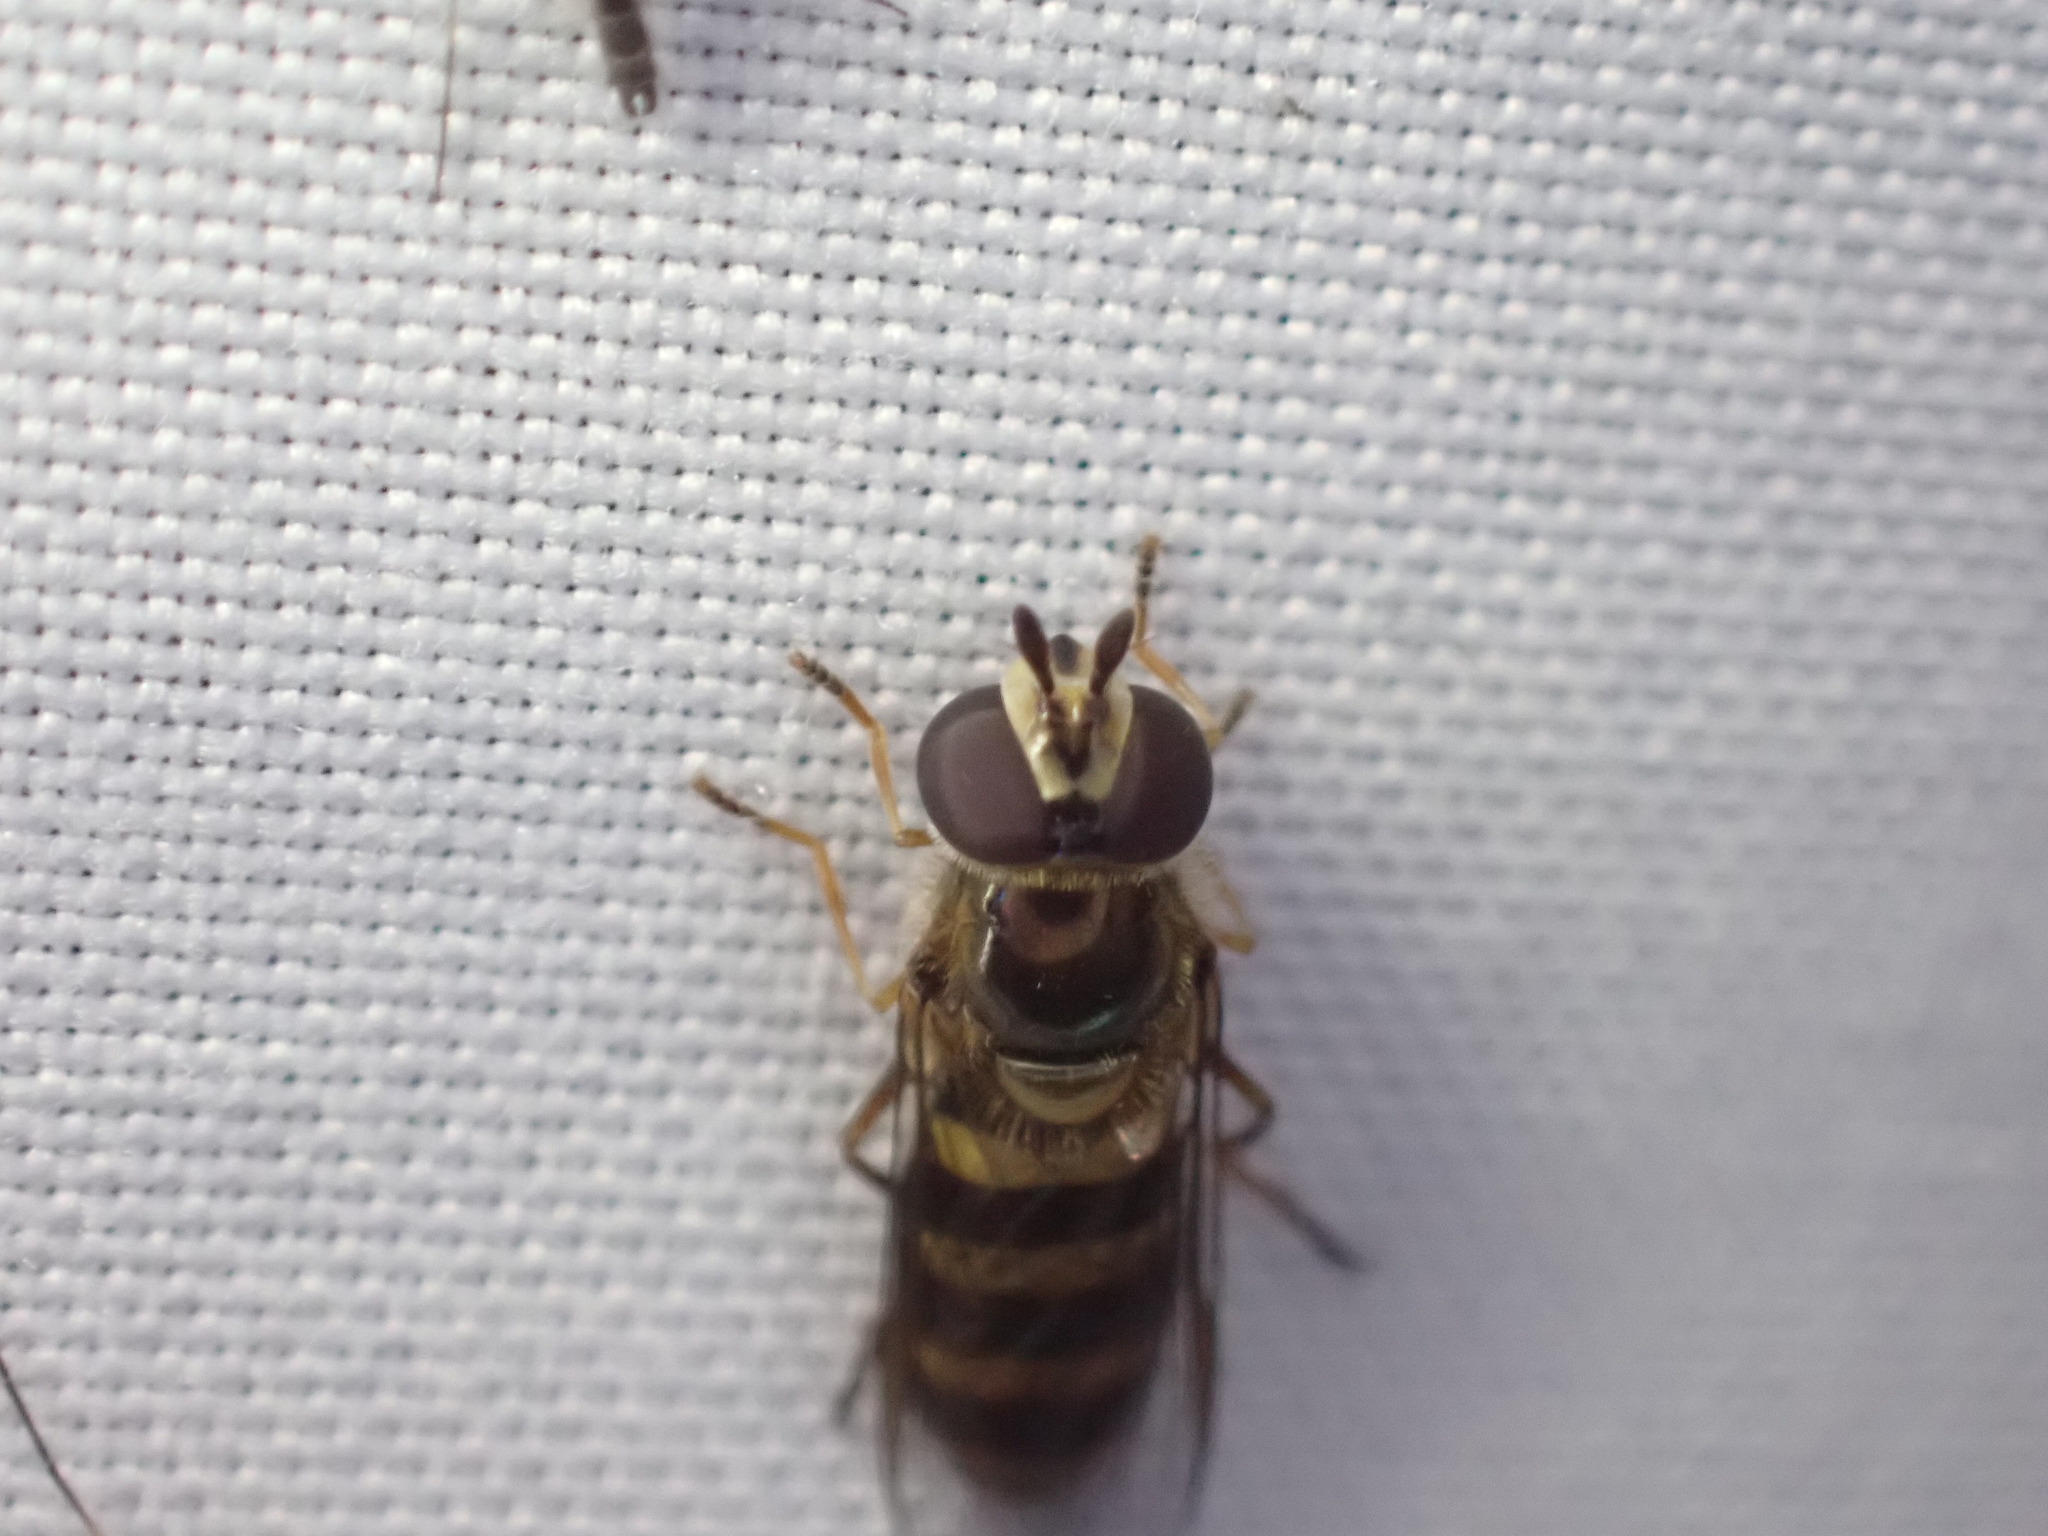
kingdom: Animalia
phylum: Arthropoda
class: Insecta
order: Diptera
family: Syrphidae
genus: Eupeodes
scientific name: Eupeodes
